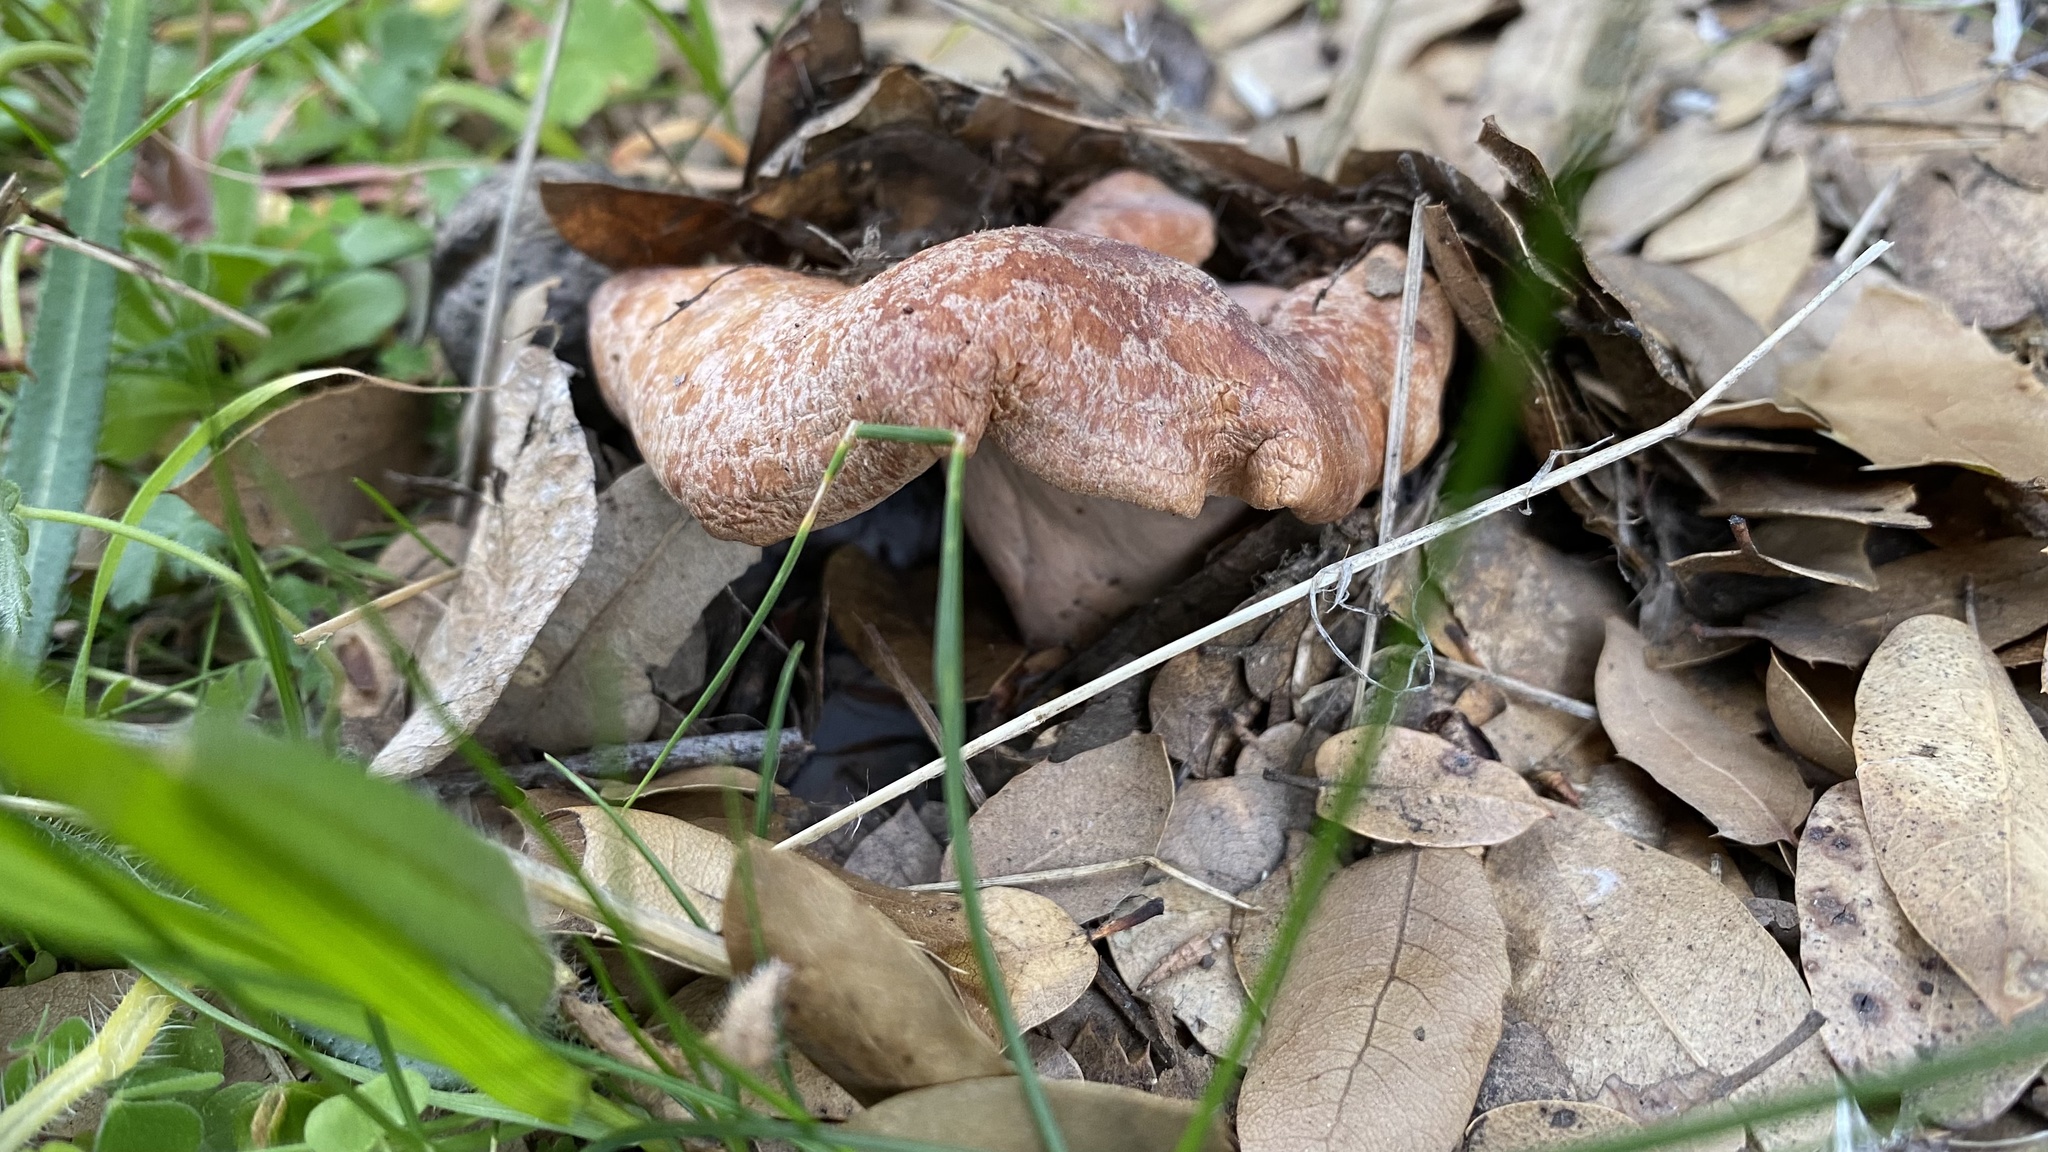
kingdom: Fungi
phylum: Basidiomycota
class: Agaricomycetes
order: Russulales
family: Russulaceae
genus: Lactarius
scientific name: Lactarius xanthogalactus
